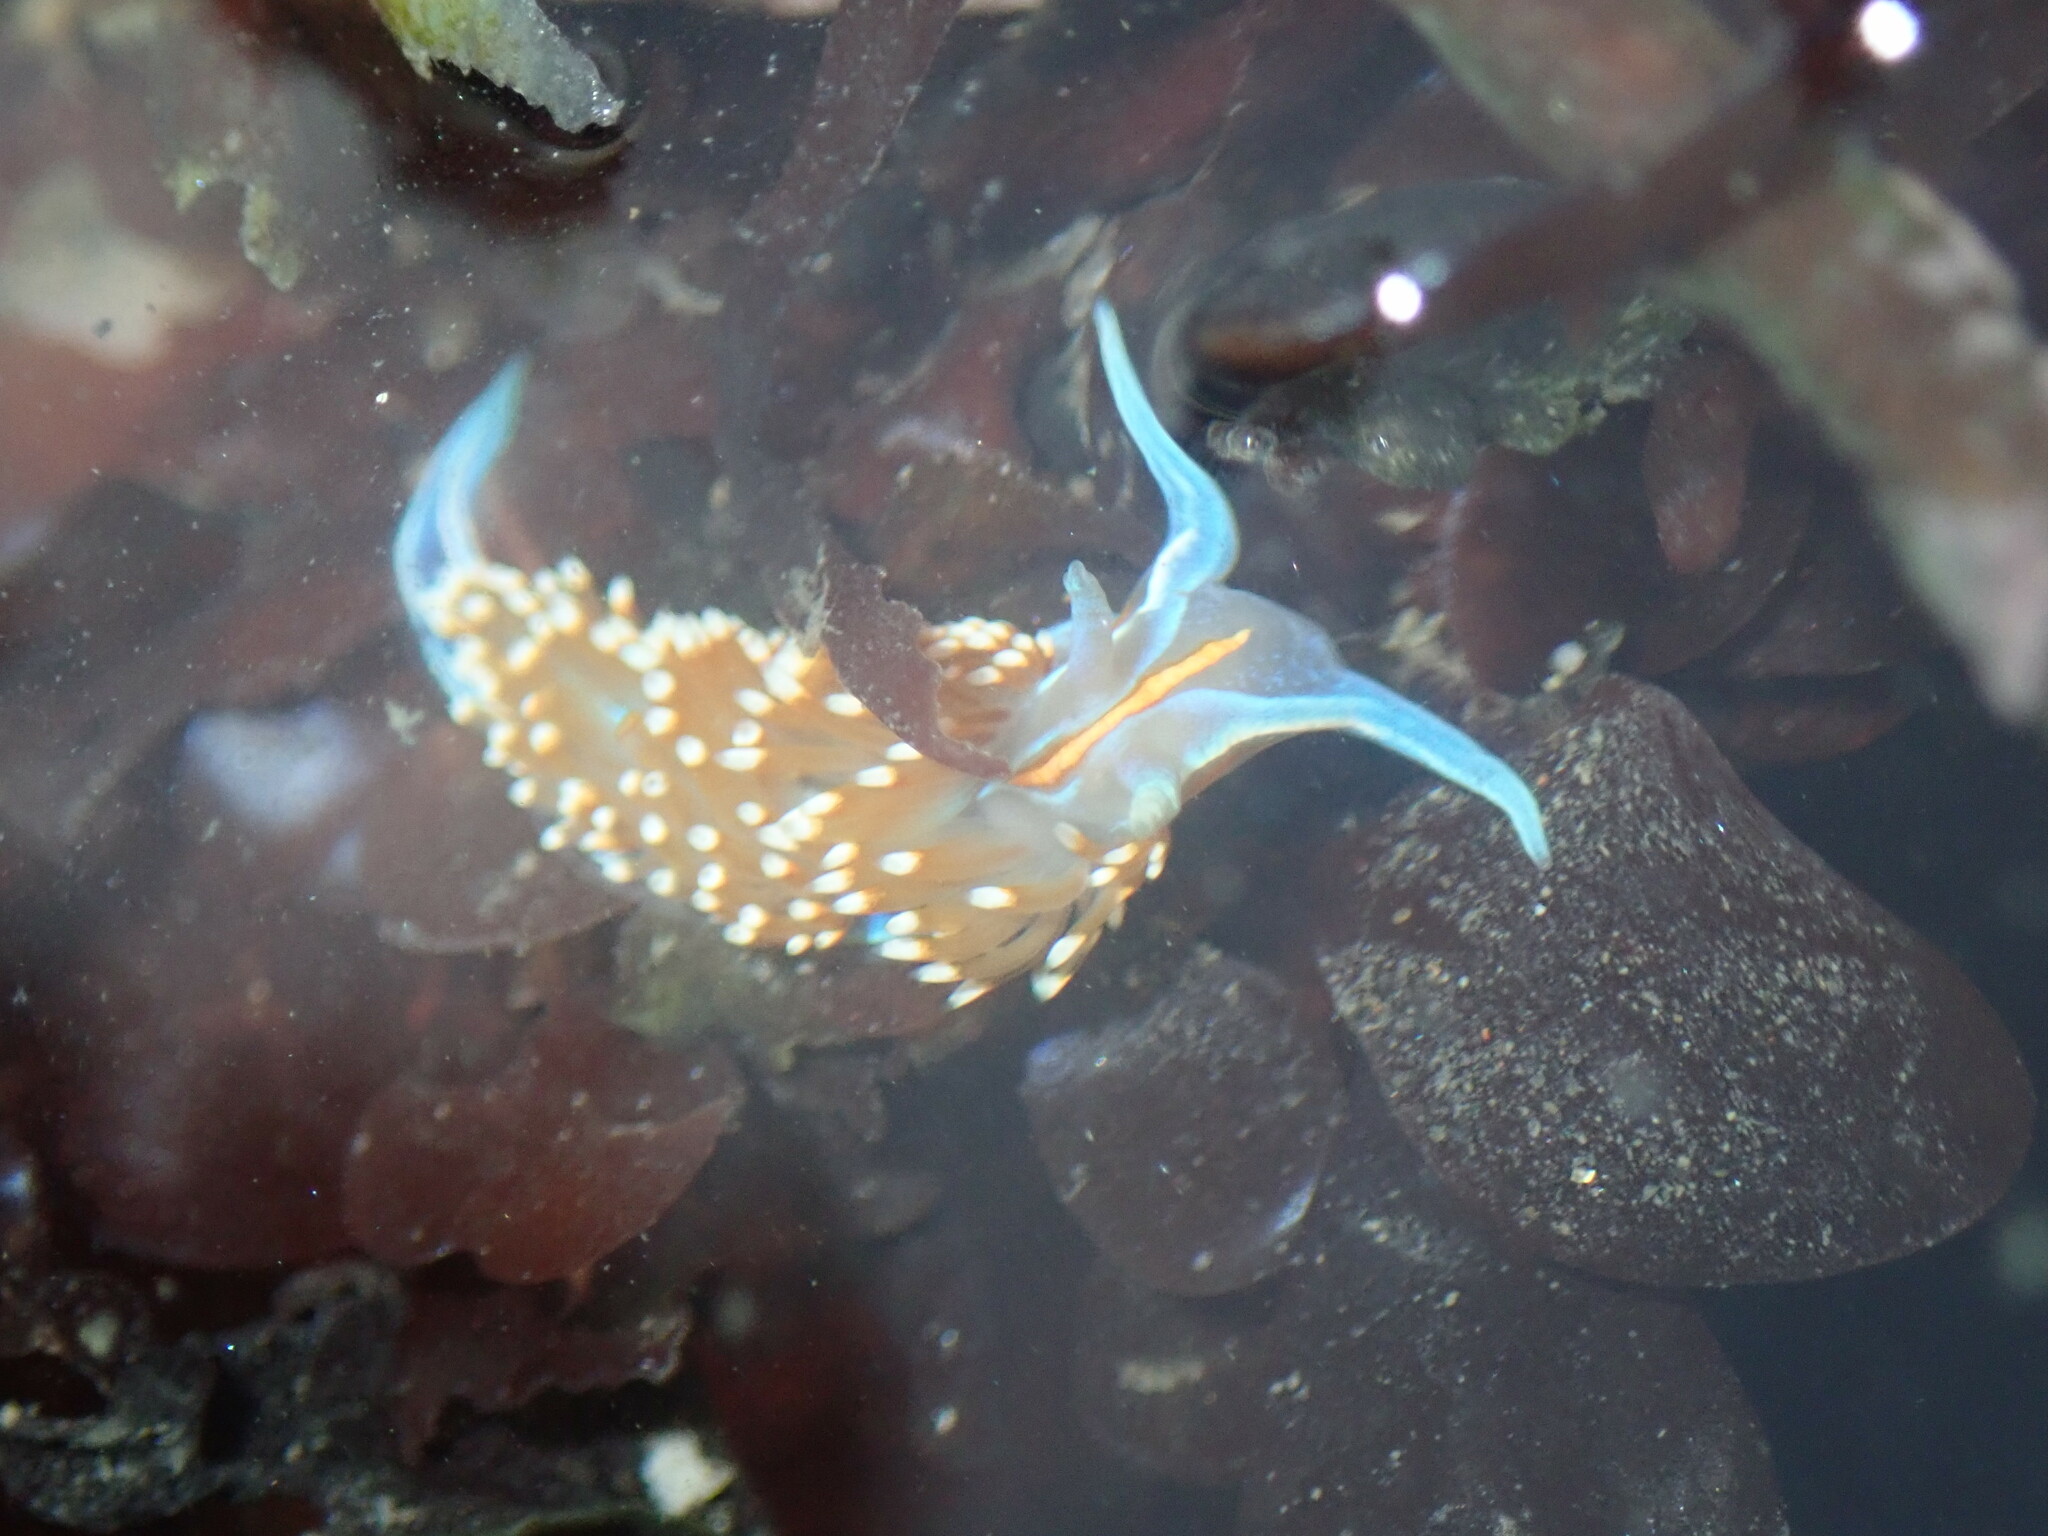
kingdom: Animalia
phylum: Mollusca
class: Gastropoda
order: Nudibranchia
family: Myrrhinidae
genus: Hermissenda
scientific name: Hermissenda opalescens
